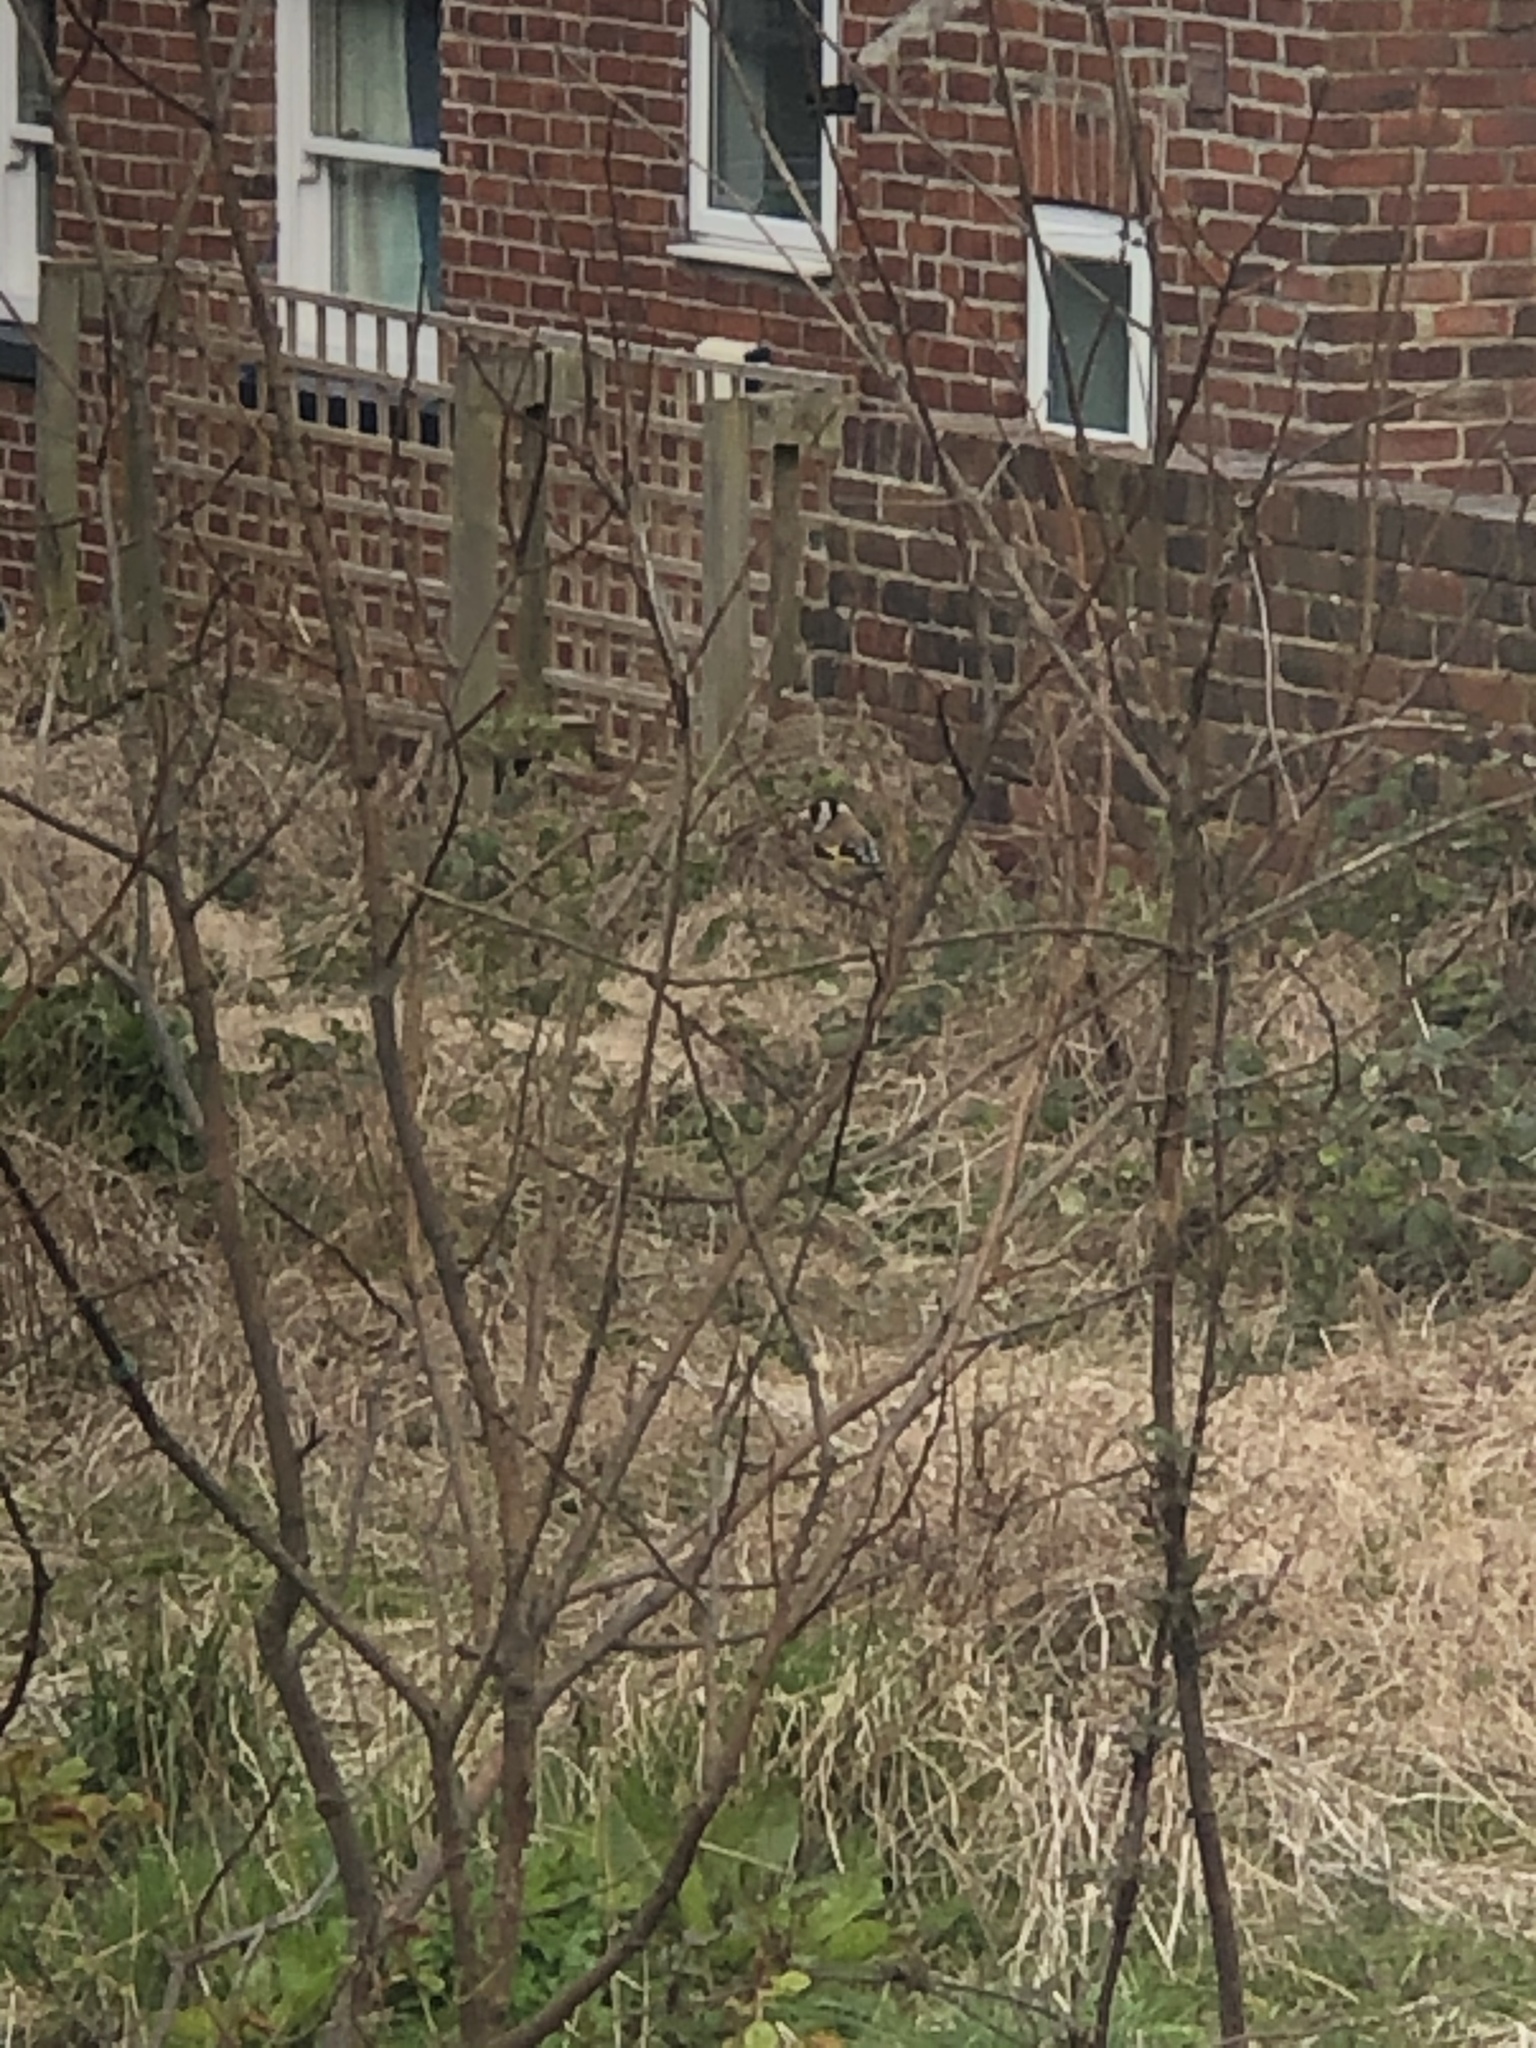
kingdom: Animalia
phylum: Chordata
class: Aves
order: Passeriformes
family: Fringillidae
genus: Carduelis
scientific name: Carduelis carduelis
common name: European goldfinch
